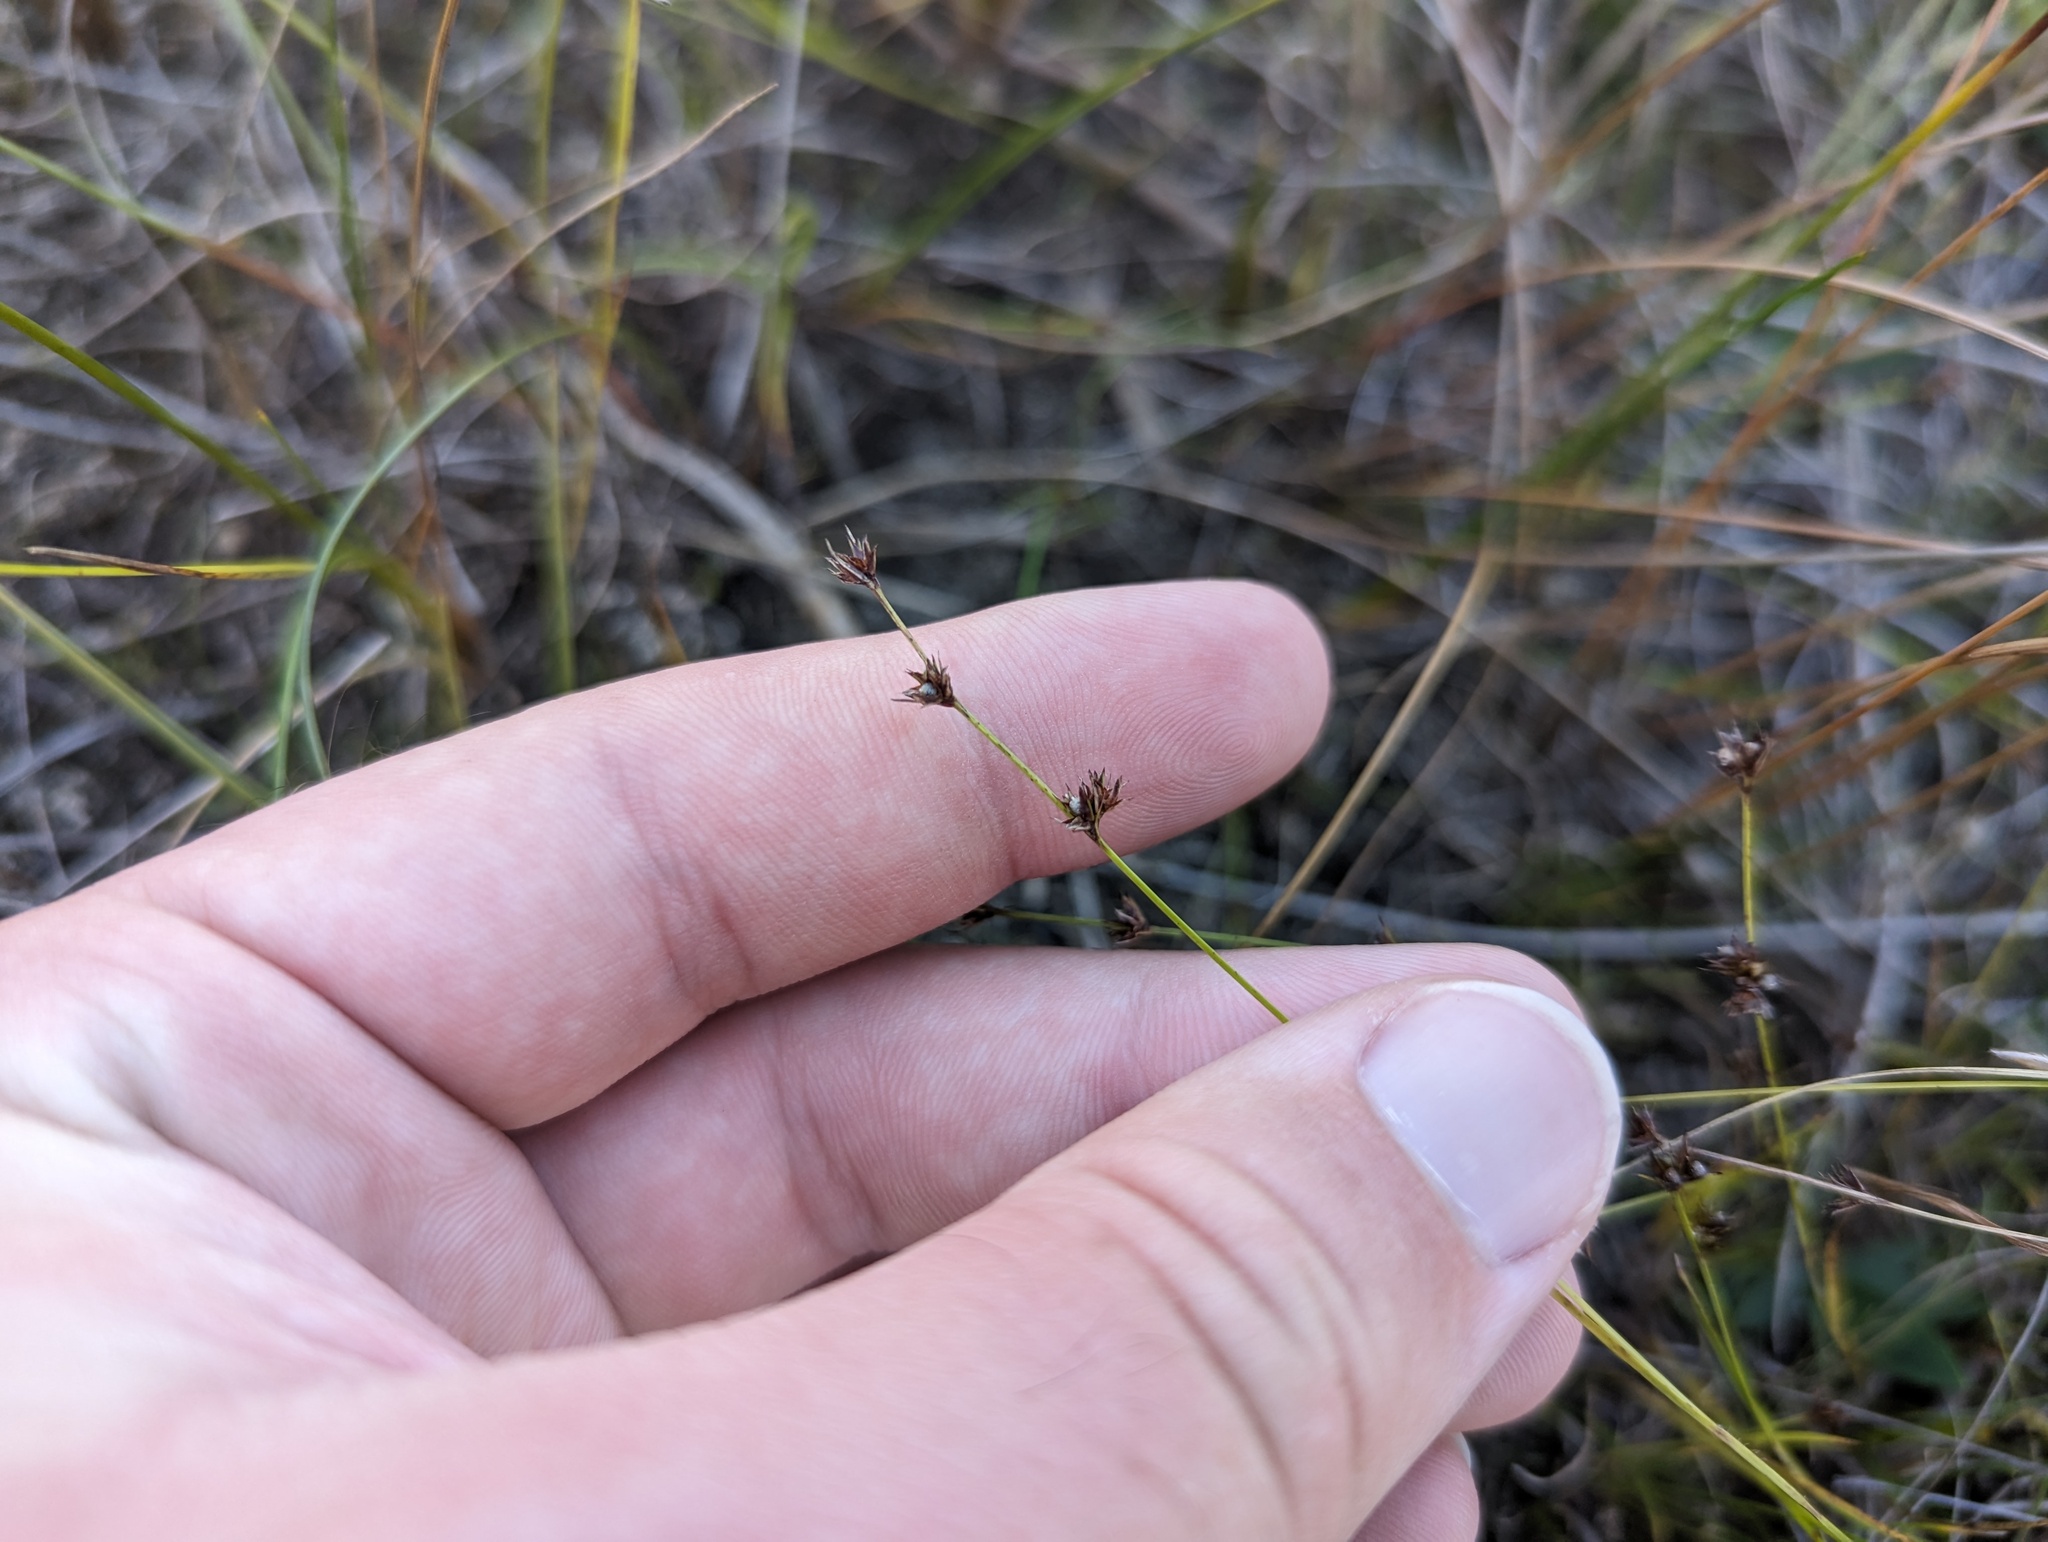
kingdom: Plantae
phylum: Tracheophyta
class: Liliopsida
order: Poales
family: Cyperaceae
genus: Scleria
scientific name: Scleria verticillata
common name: Low nutrush
